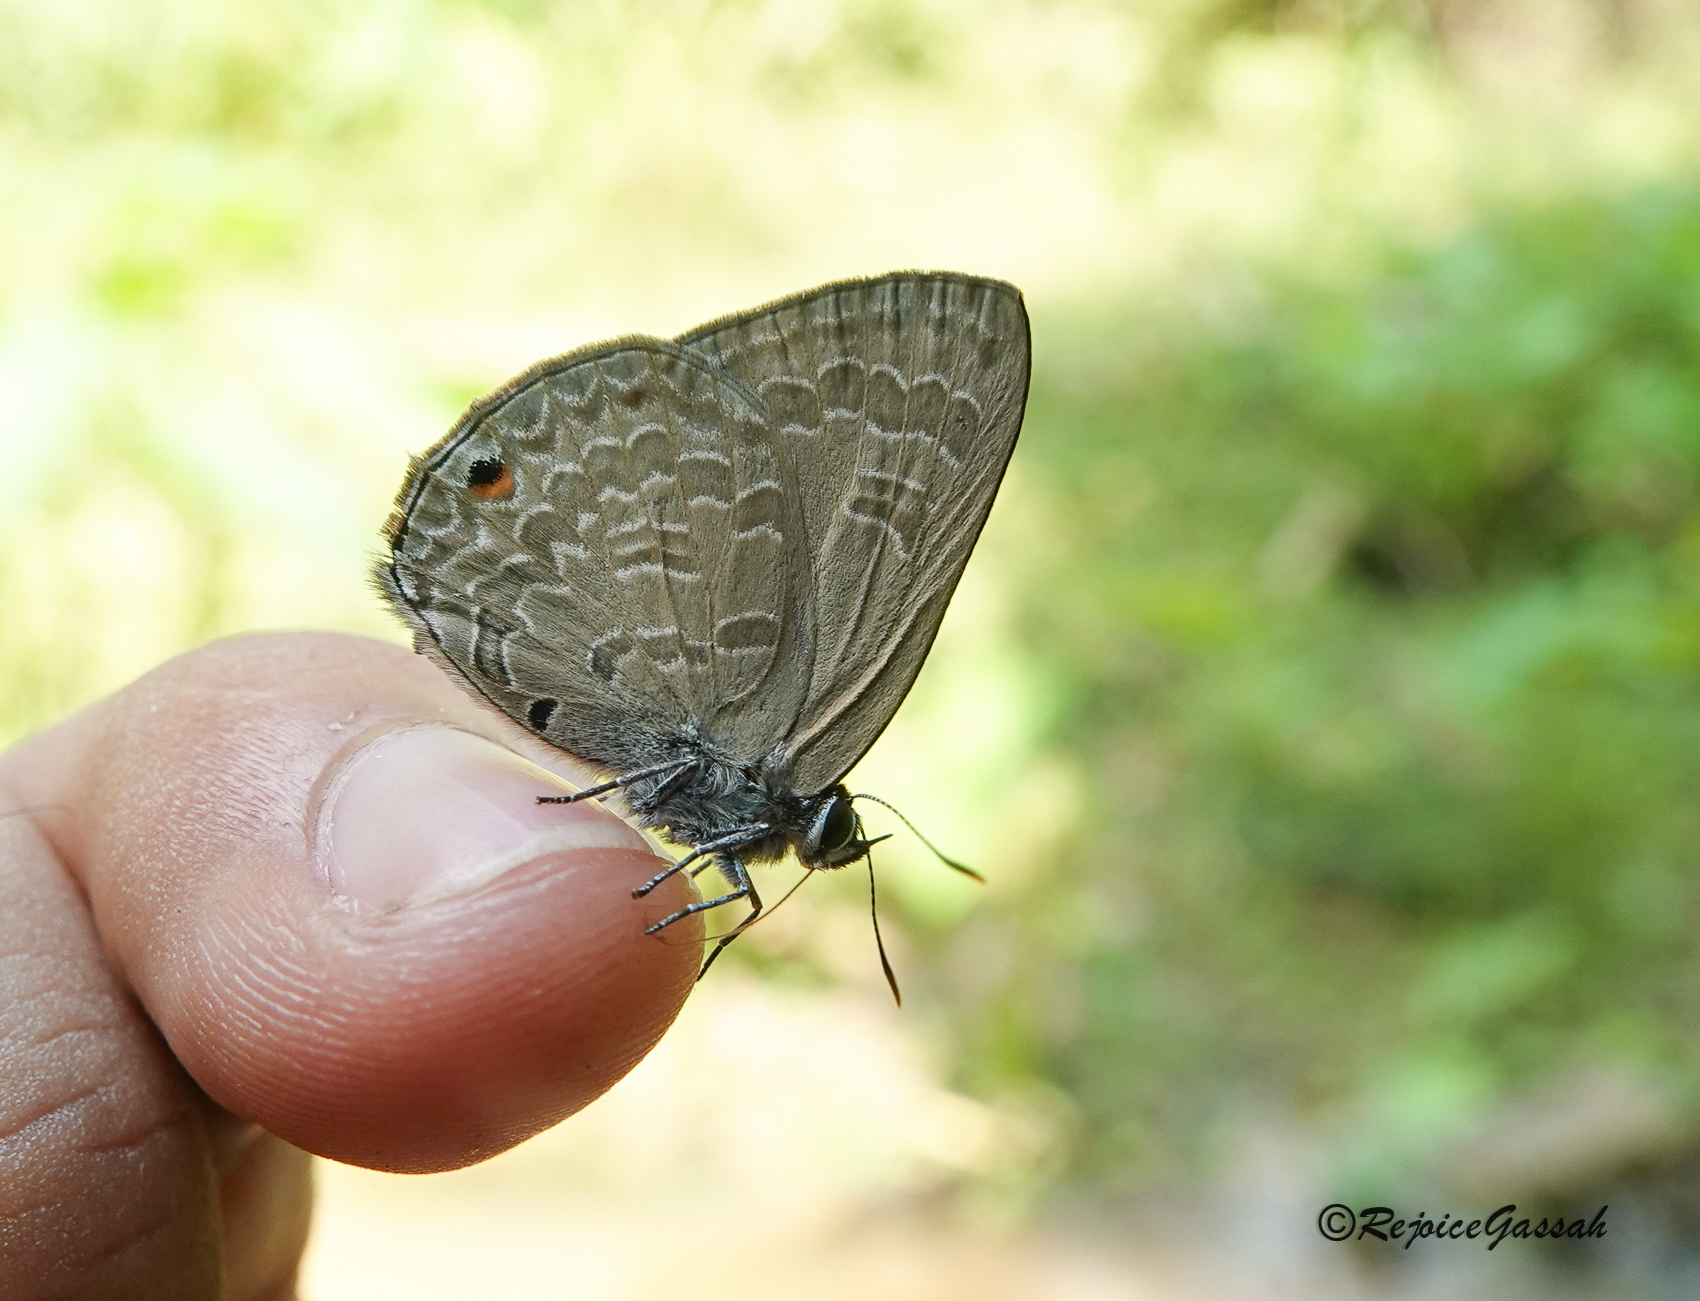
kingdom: Animalia
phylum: Arthropoda
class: Insecta
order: Lepidoptera
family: Lycaenidae
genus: Anthene
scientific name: Anthene emolus
